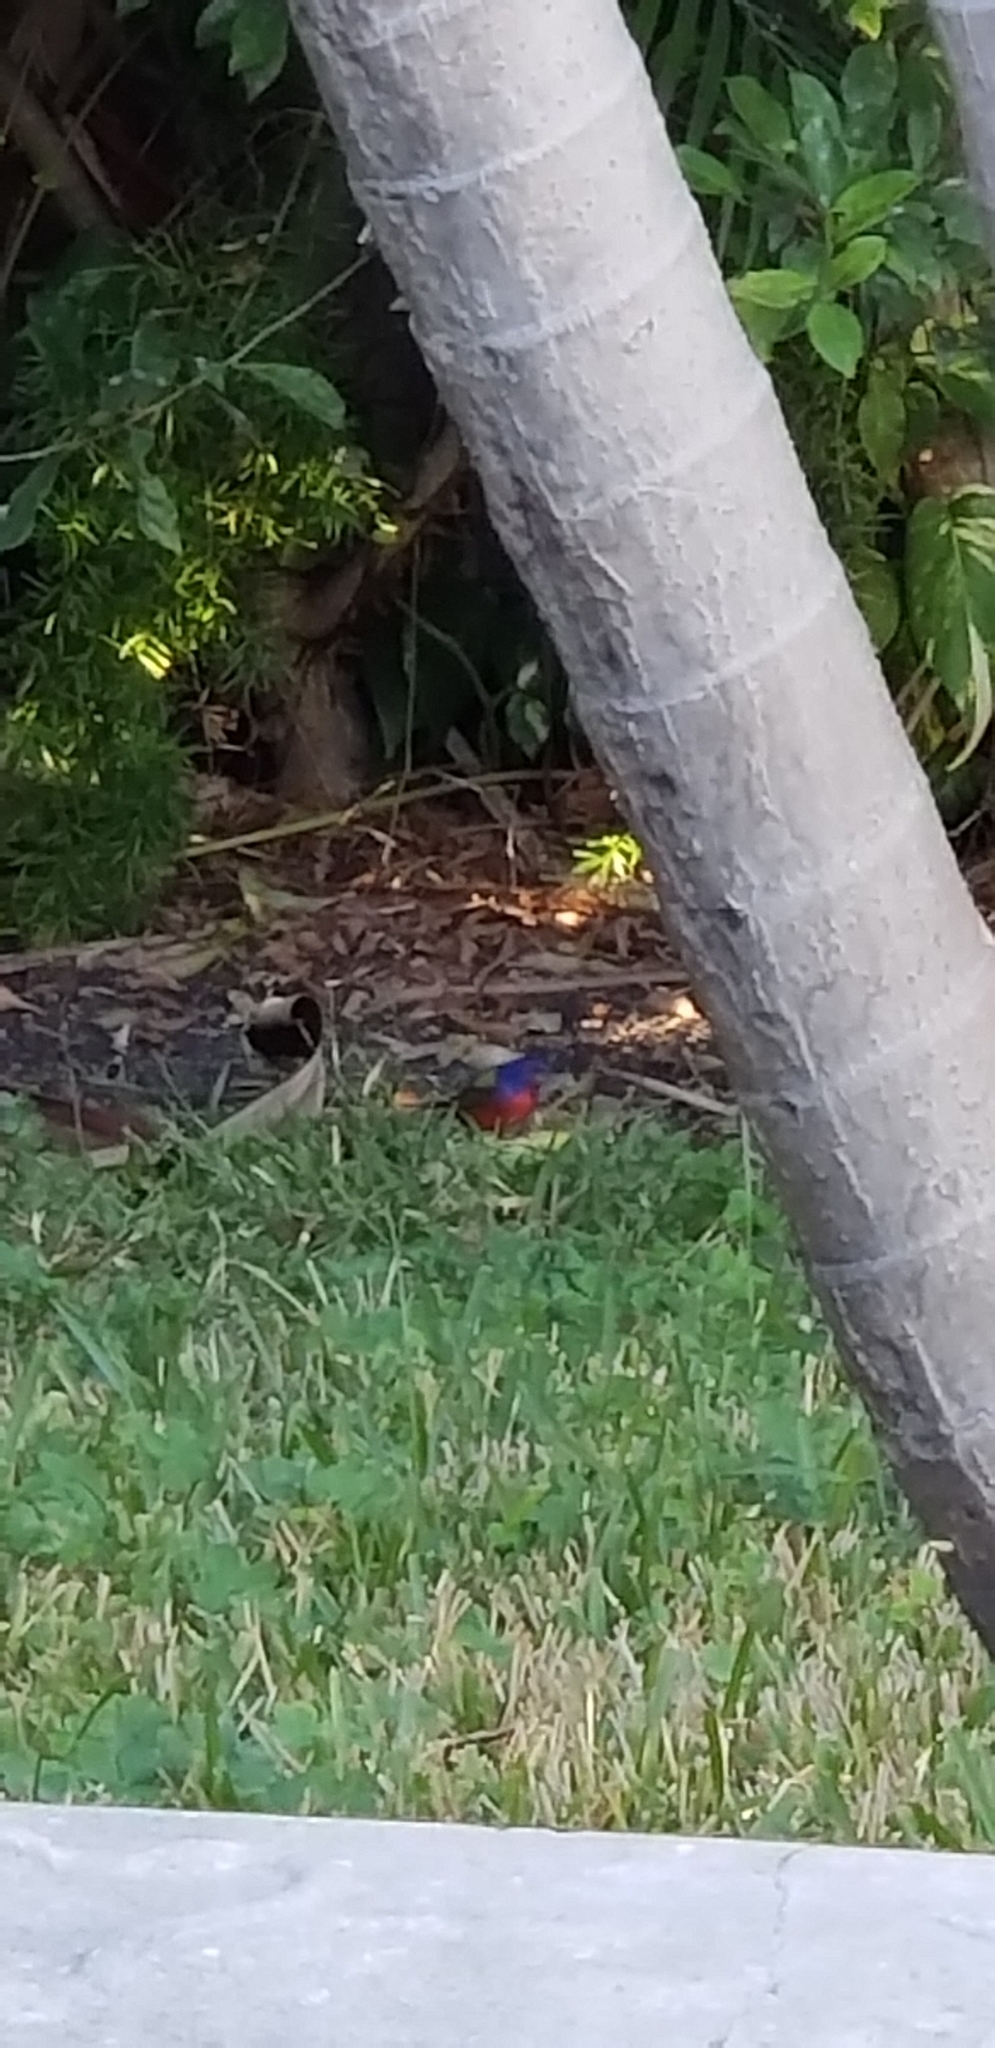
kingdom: Animalia
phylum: Chordata
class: Aves
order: Passeriformes
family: Cardinalidae
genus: Passerina
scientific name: Passerina ciris
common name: Painted bunting
